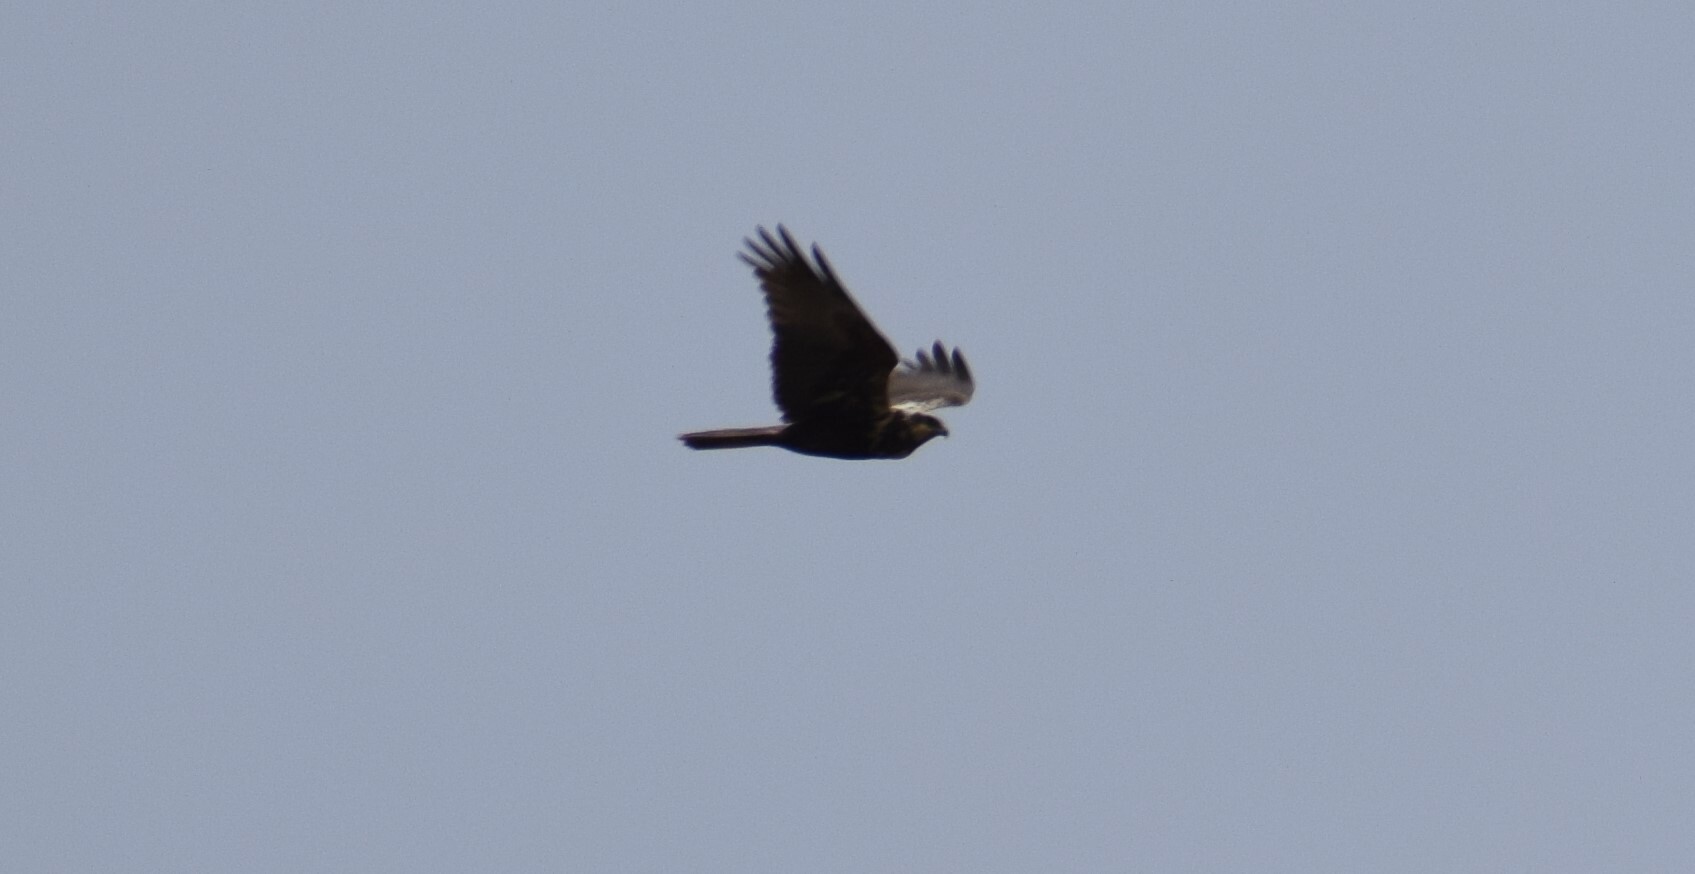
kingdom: Animalia
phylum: Chordata
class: Aves
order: Accipitriformes
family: Accipitridae
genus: Circus
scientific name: Circus aeruginosus
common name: Western marsh harrier
